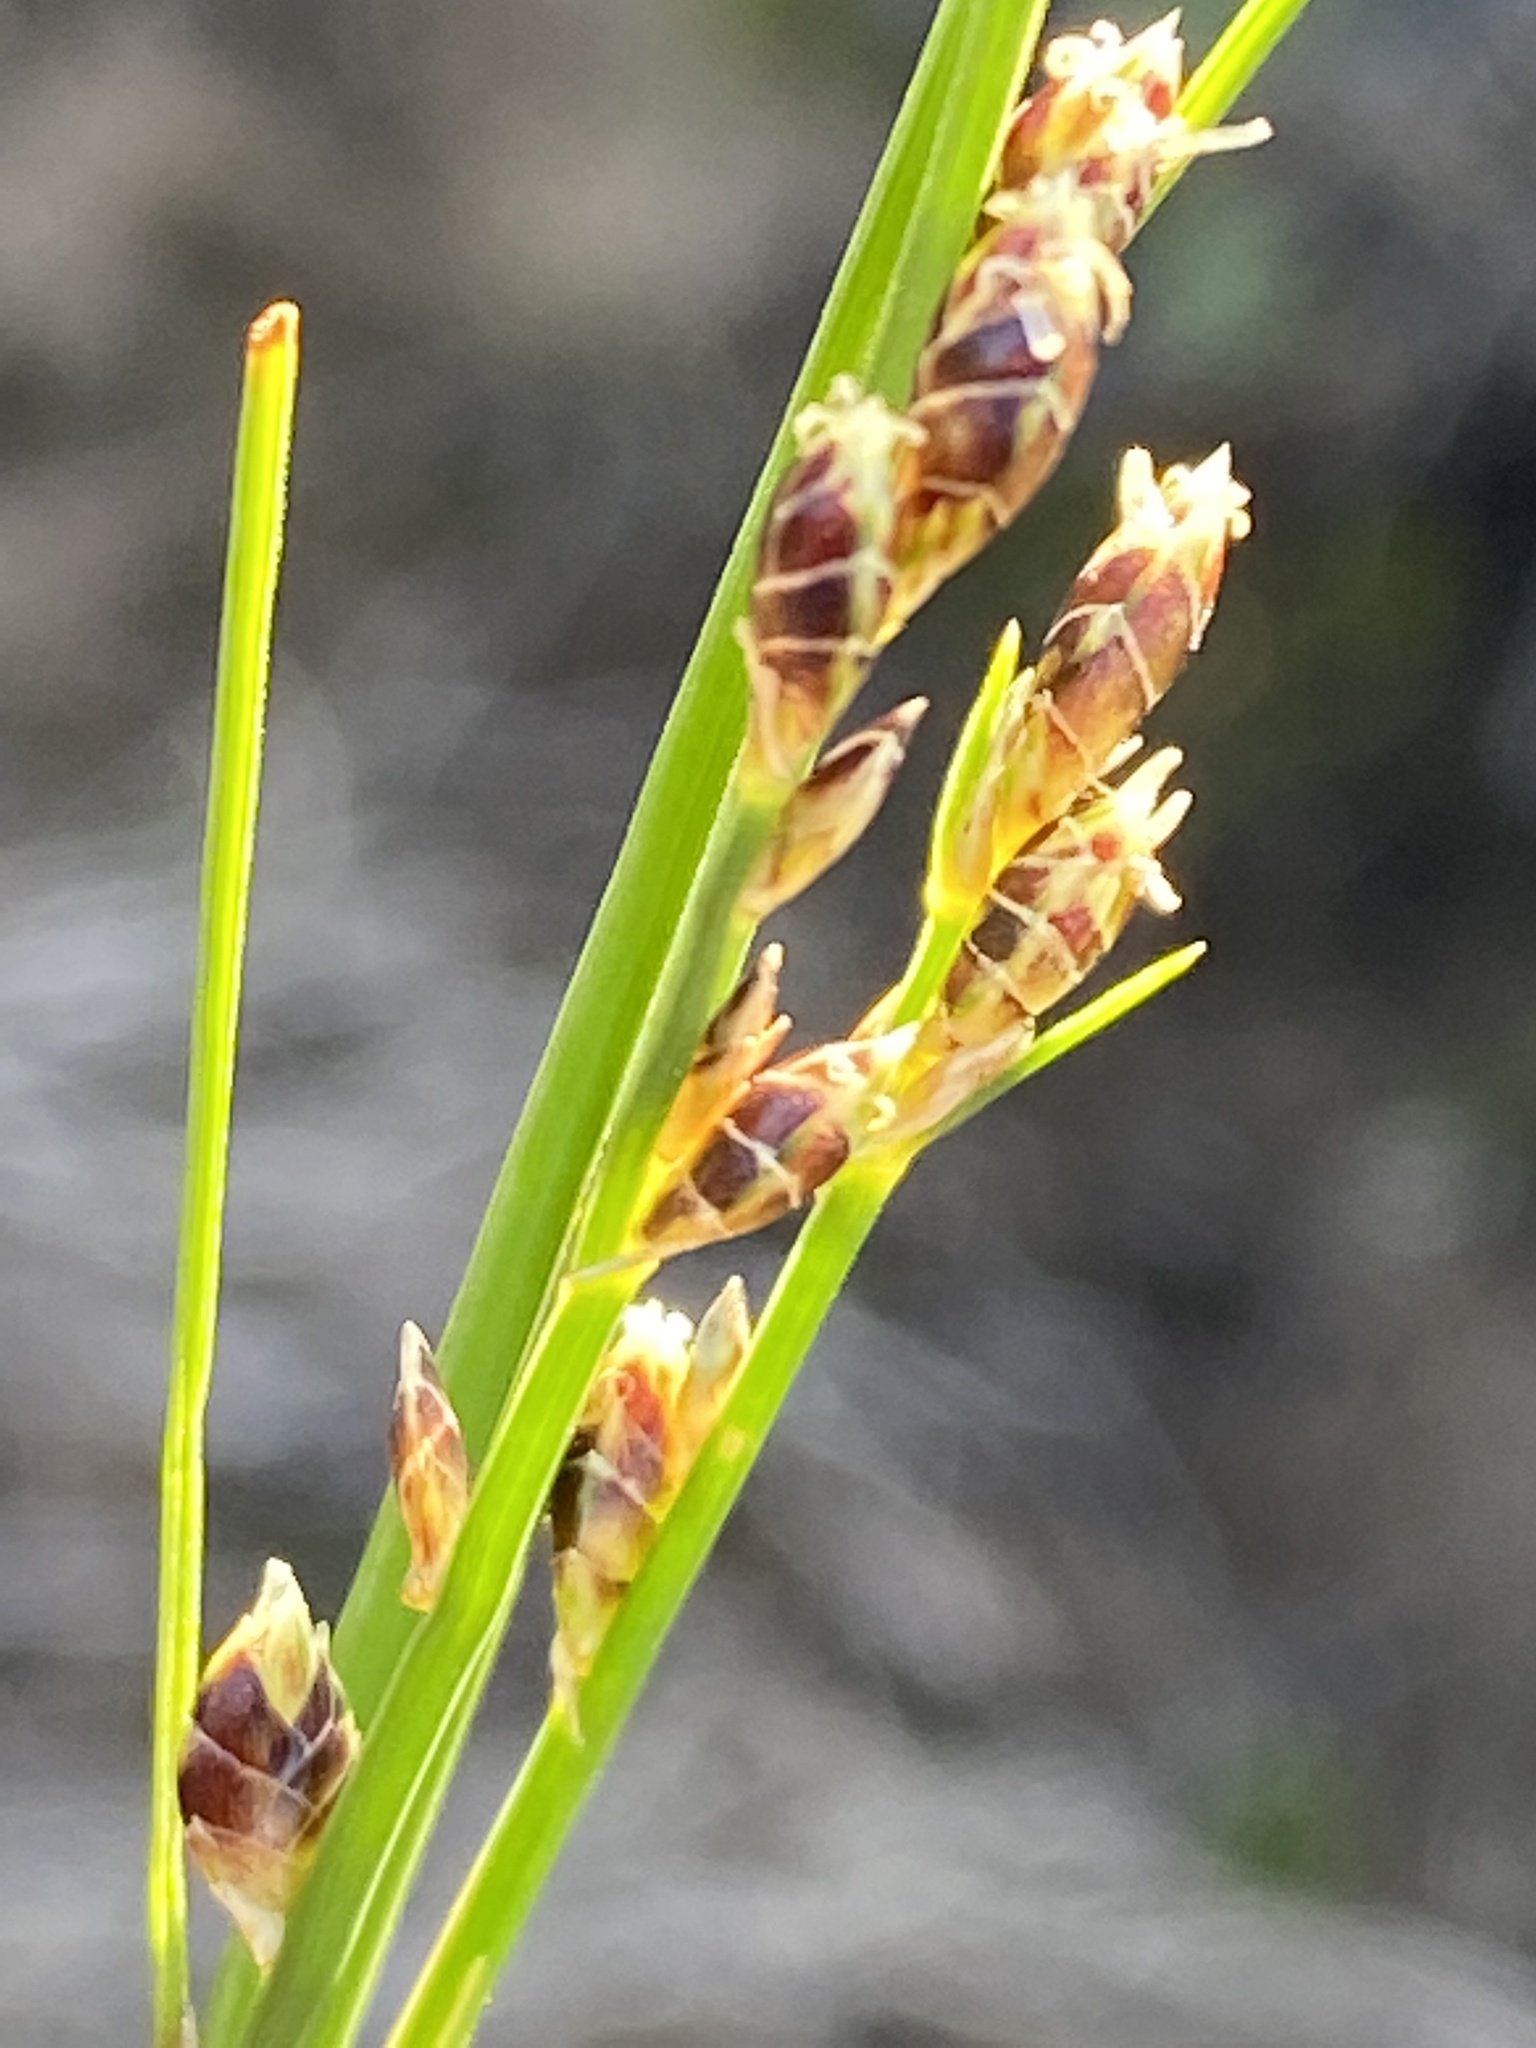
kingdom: Plantae
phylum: Tracheophyta
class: Liliopsida
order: Poales
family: Cyperaceae
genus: Ficinia
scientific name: Ficinia secunda
